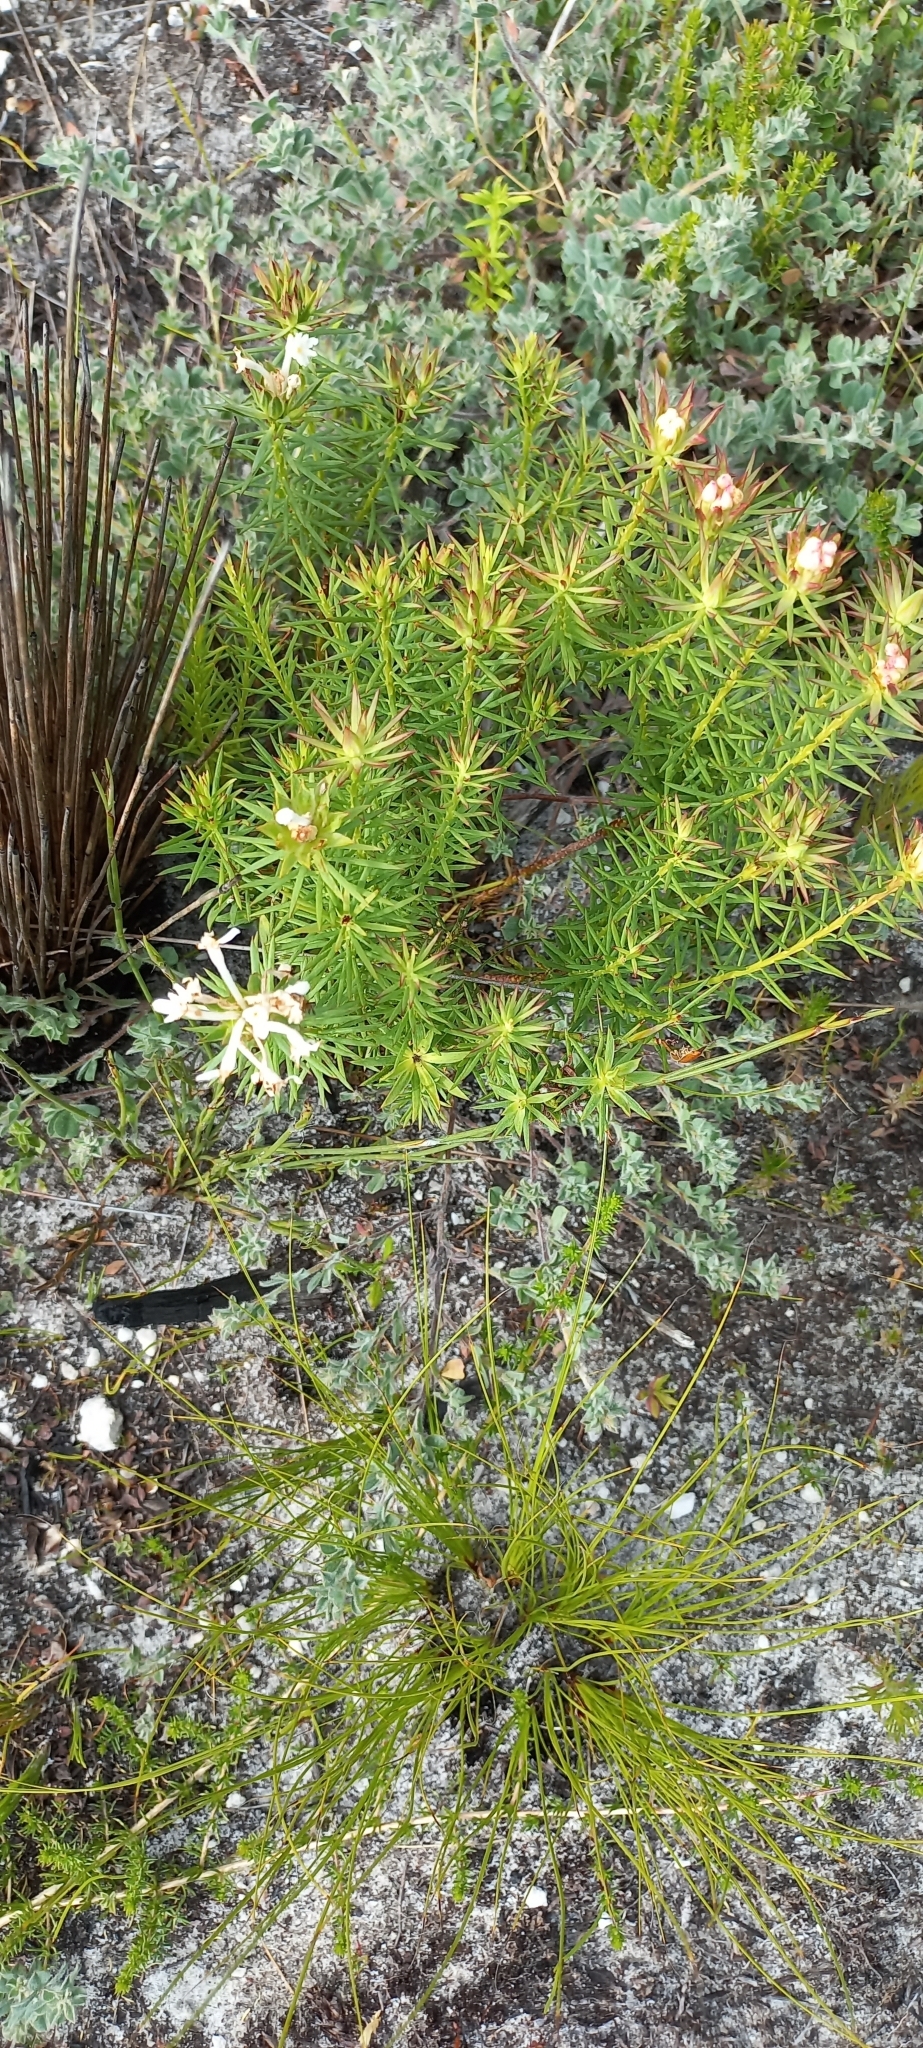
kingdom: Plantae
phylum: Tracheophyta
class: Magnoliopsida
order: Malvales
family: Thymelaeaceae
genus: Gnidia
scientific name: Gnidia pinifolia
